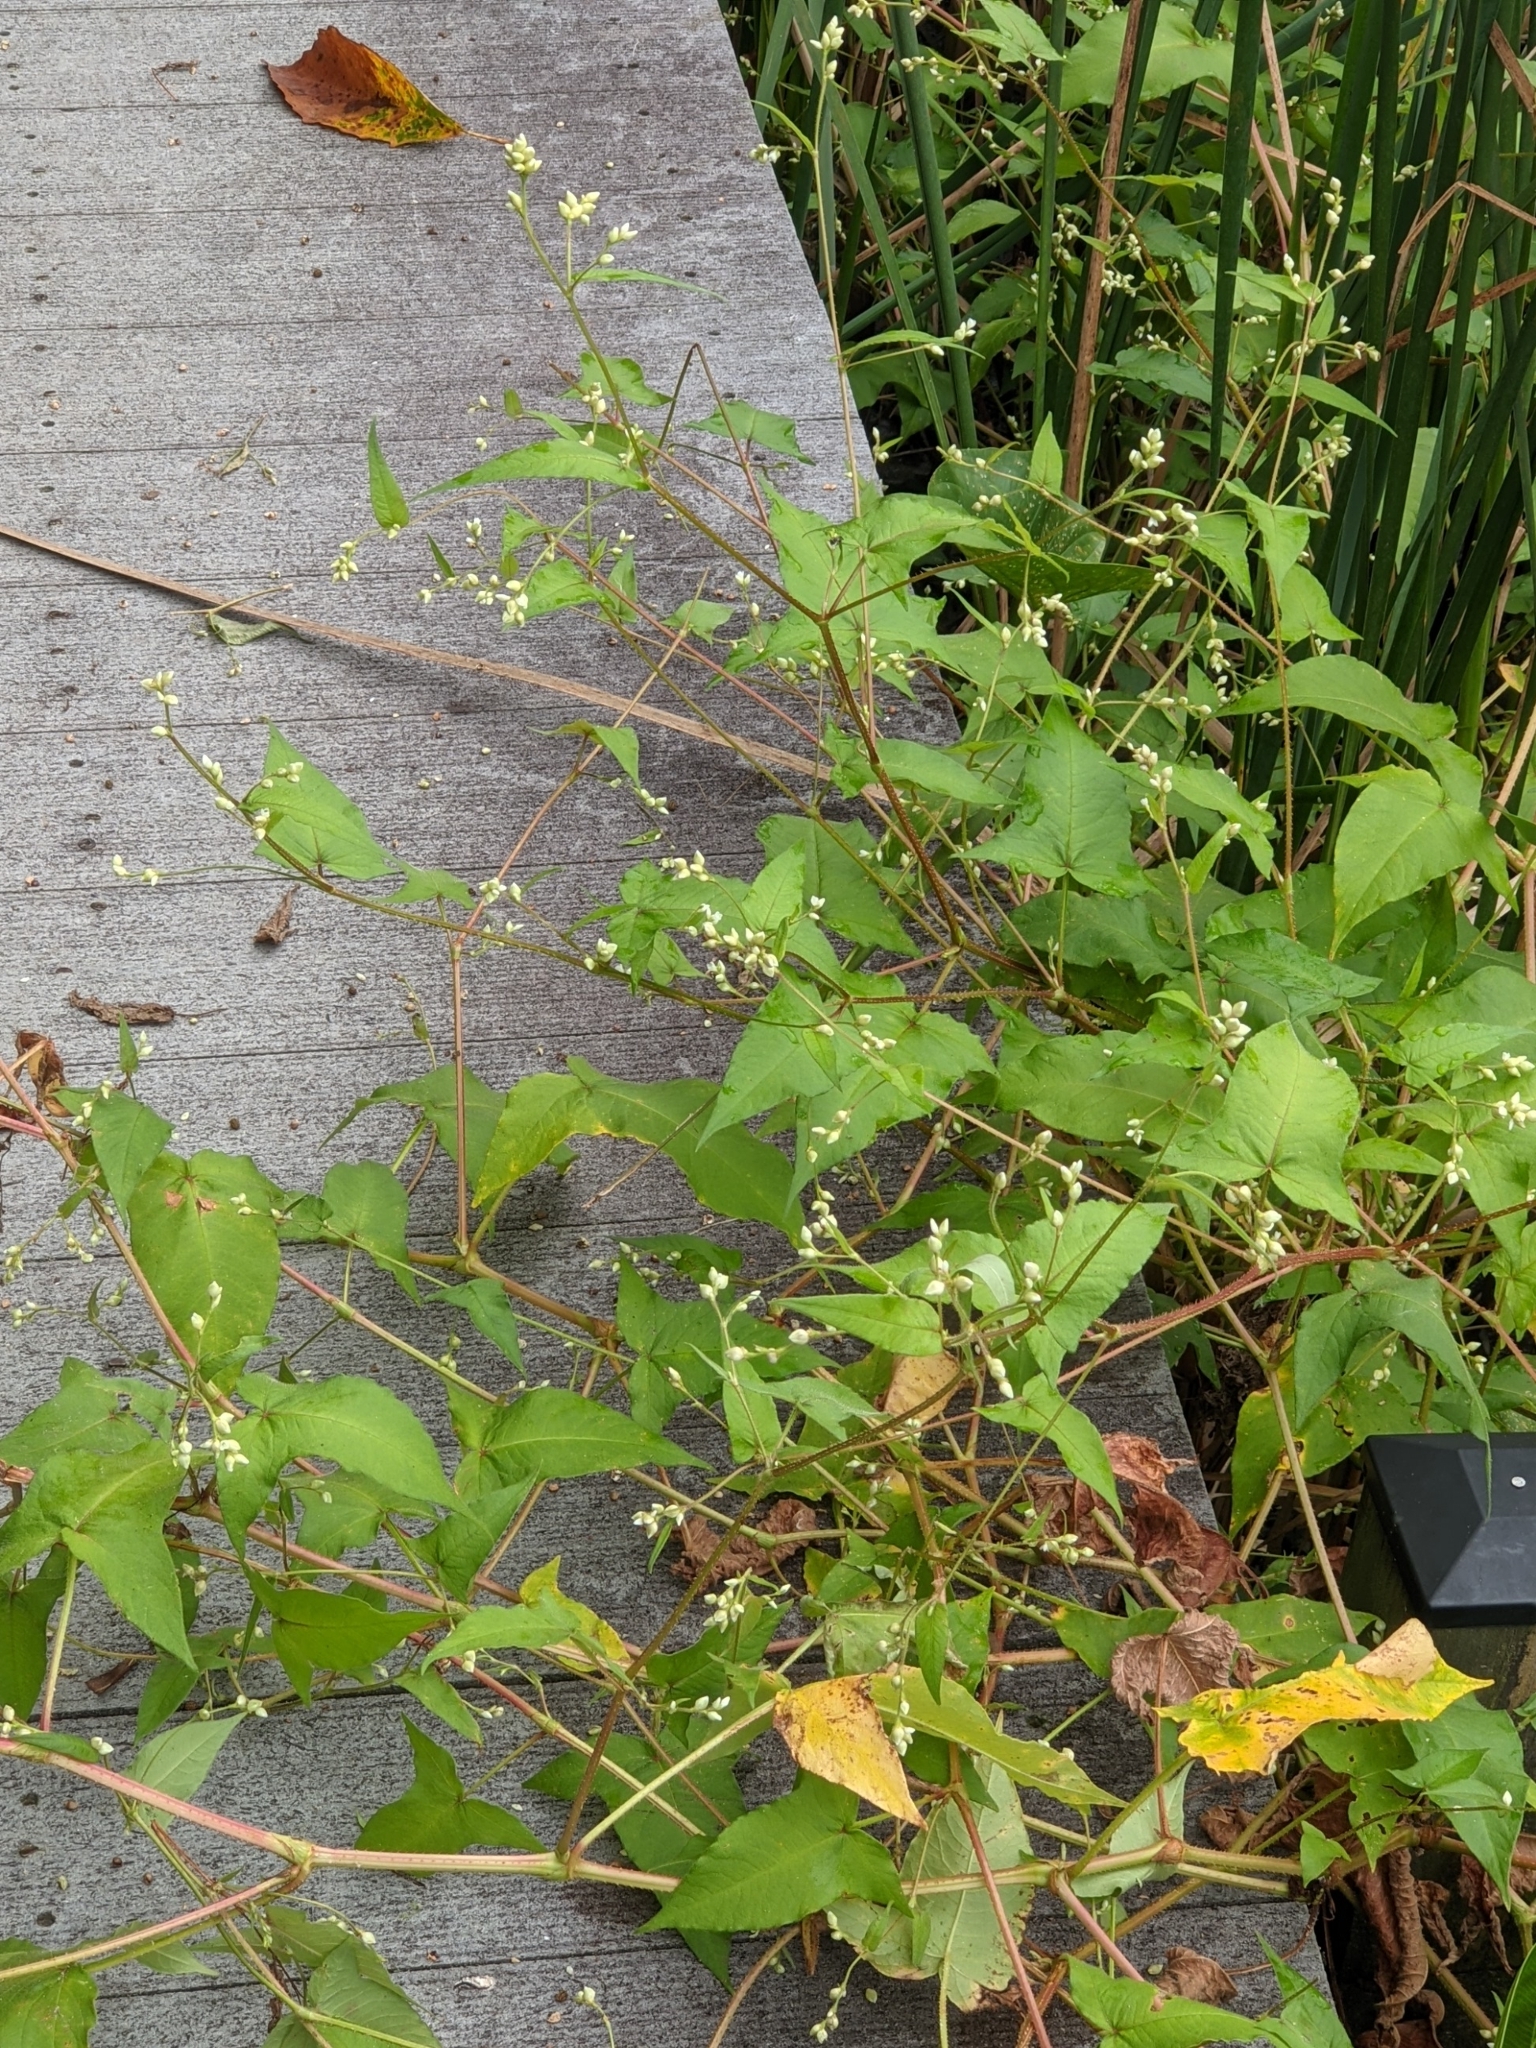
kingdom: Plantae
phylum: Tracheophyta
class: Magnoliopsida
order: Caryophyllales
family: Polygonaceae
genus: Persicaria
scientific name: Persicaria arifolia
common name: Halberd-leaved tear-thumb
